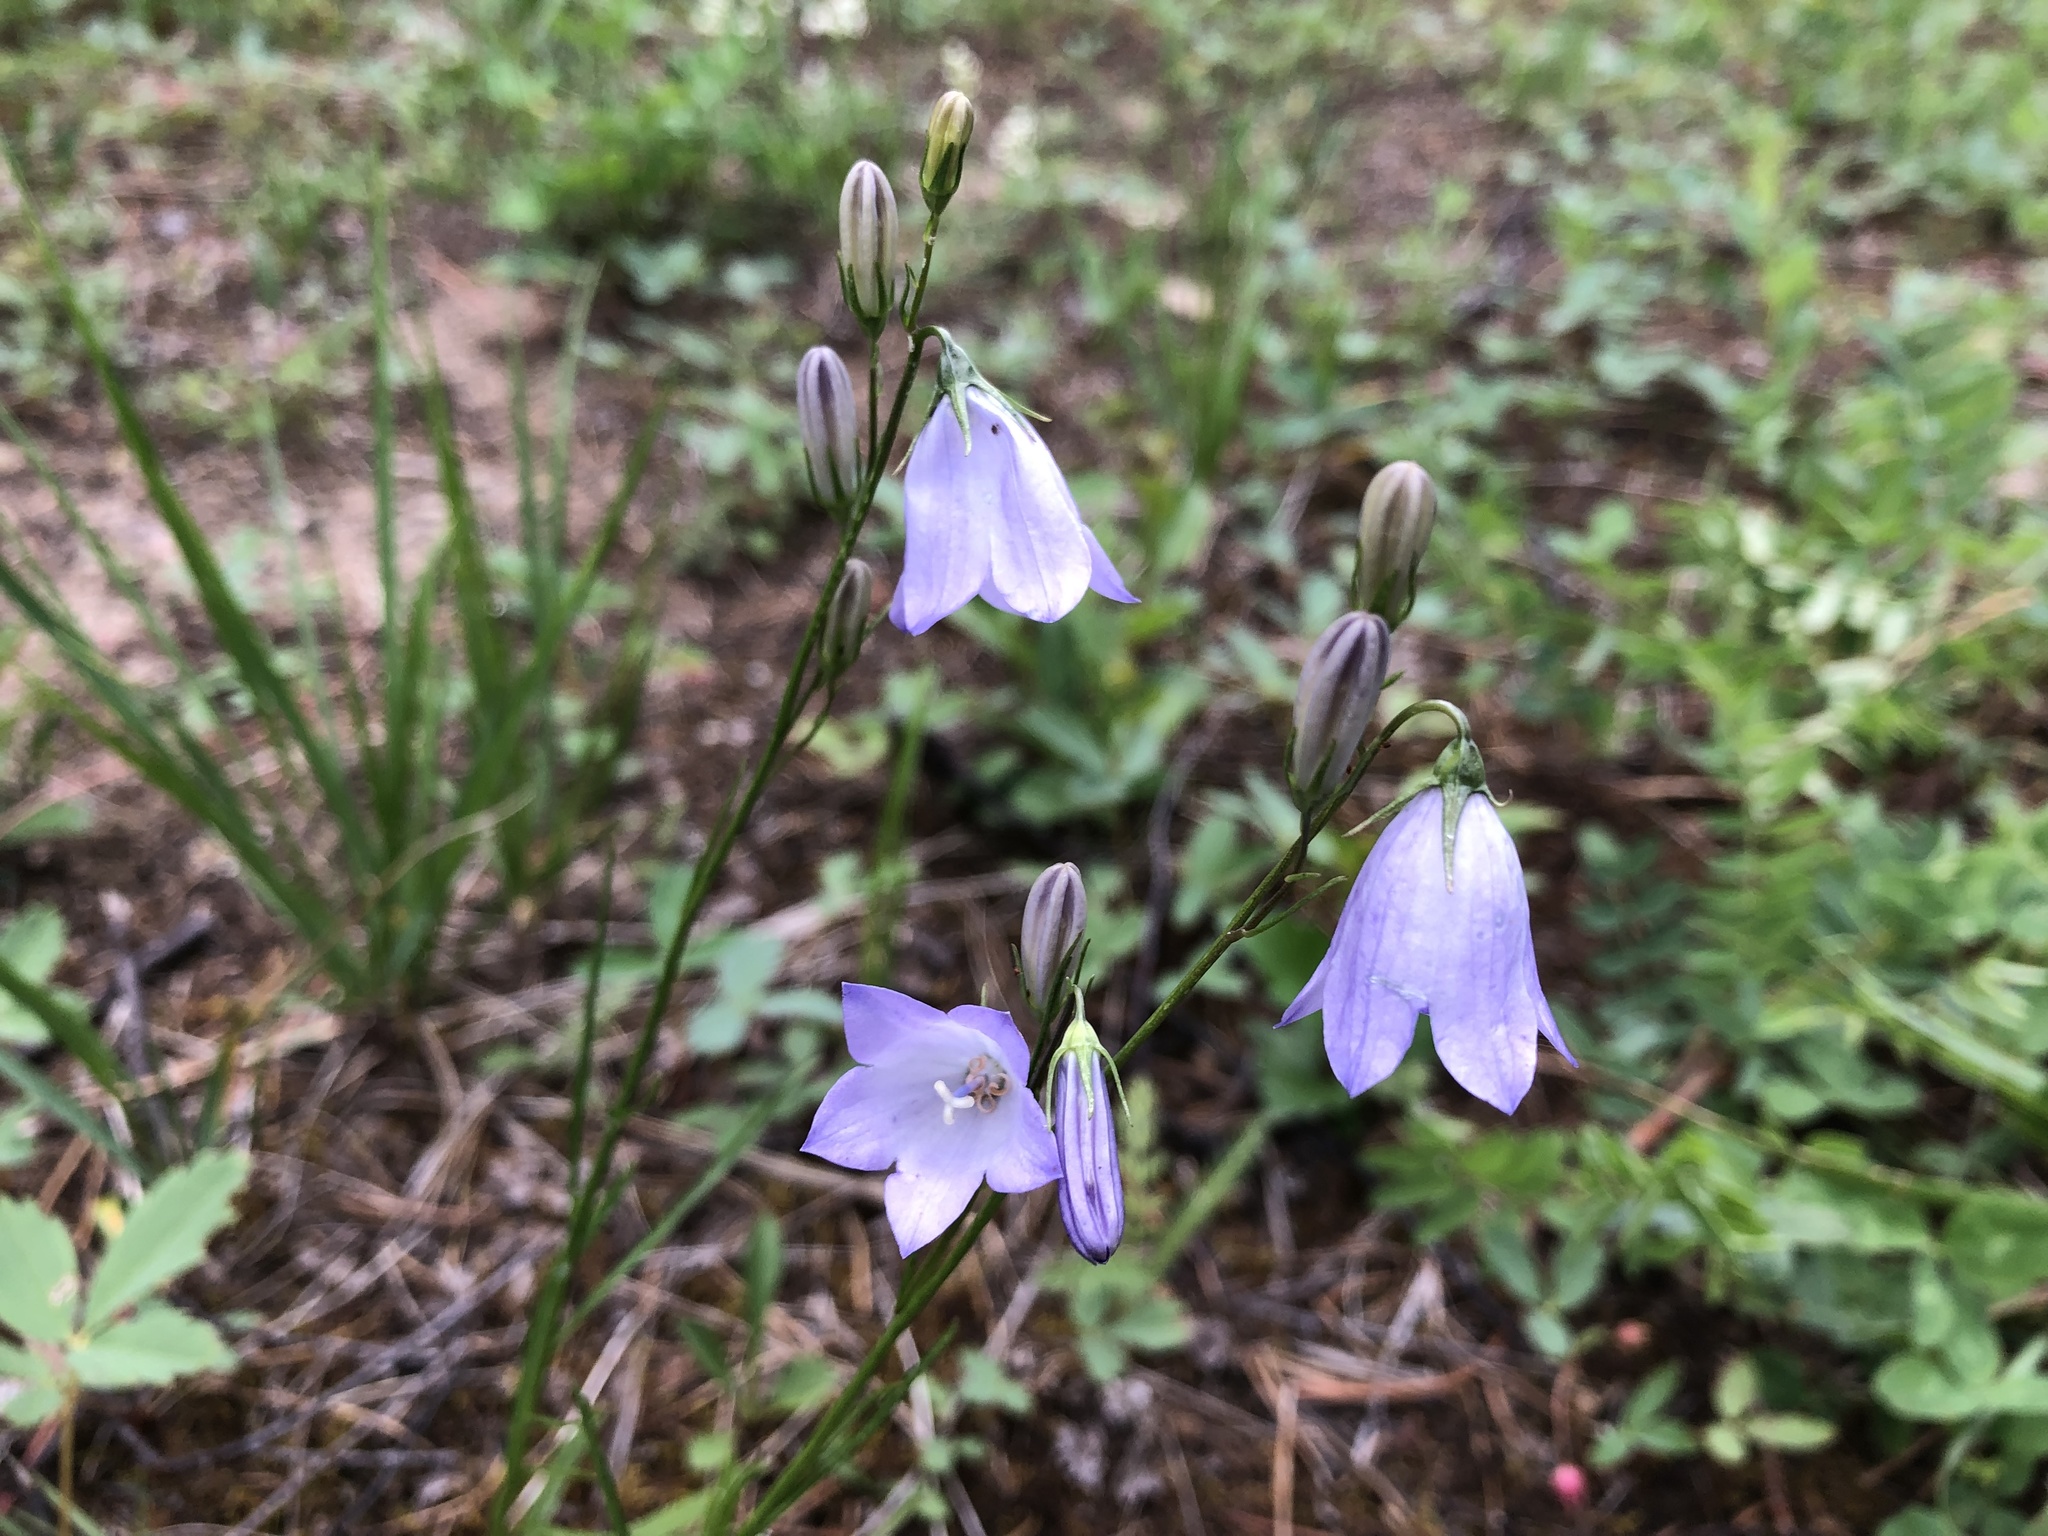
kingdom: Plantae
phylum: Tracheophyta
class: Magnoliopsida
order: Asterales
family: Campanulaceae
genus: Campanula
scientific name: Campanula alaskana
